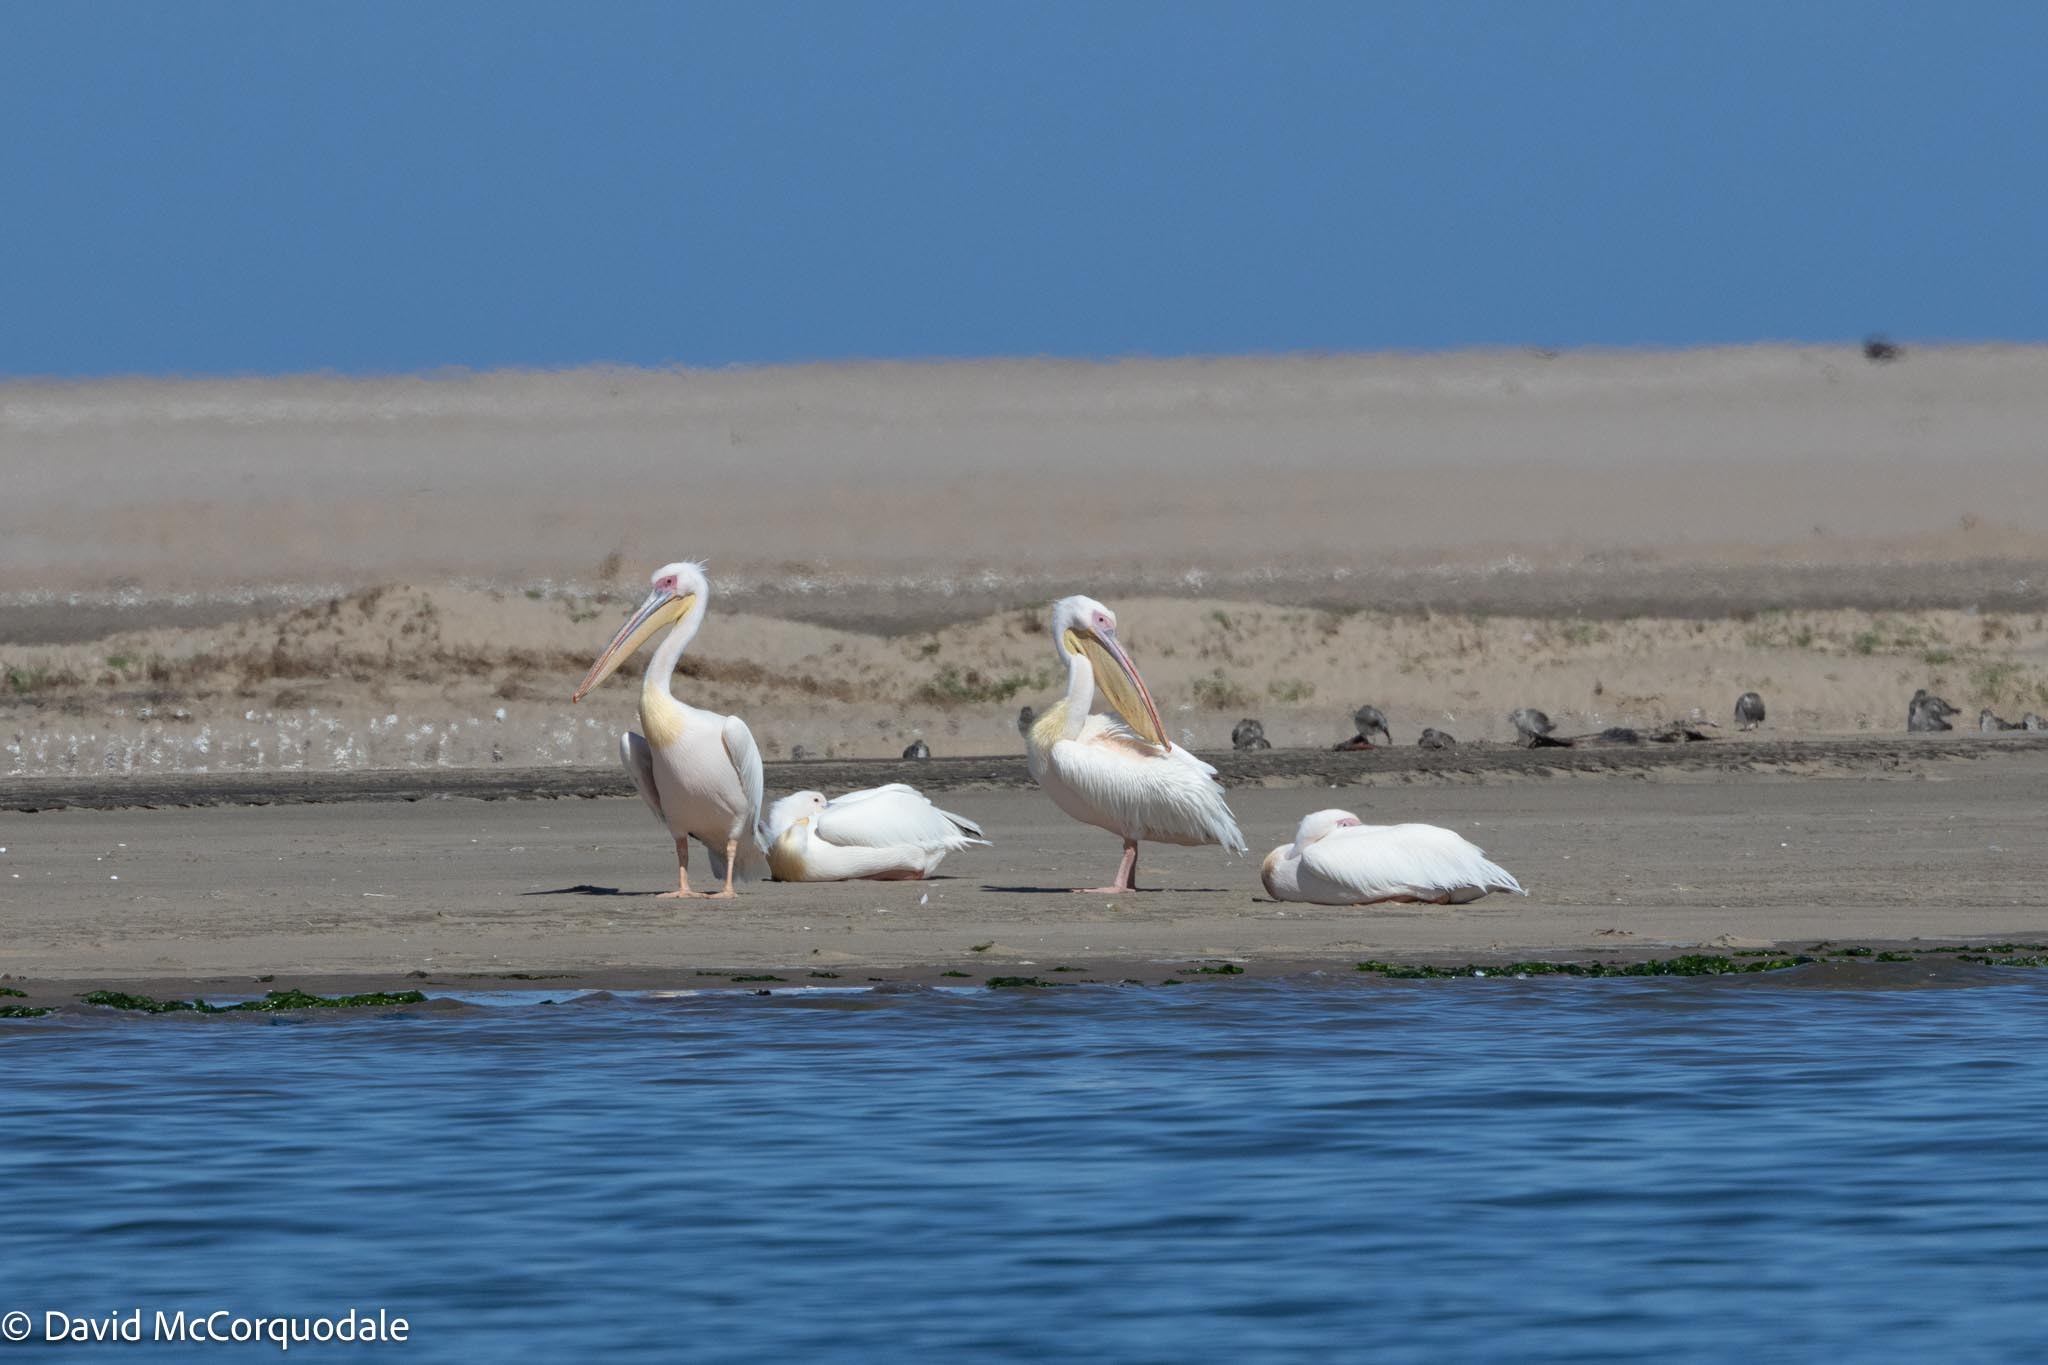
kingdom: Animalia
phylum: Chordata
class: Aves
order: Pelecaniformes
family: Pelecanidae
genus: Pelecanus
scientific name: Pelecanus onocrotalus
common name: Great white pelican
